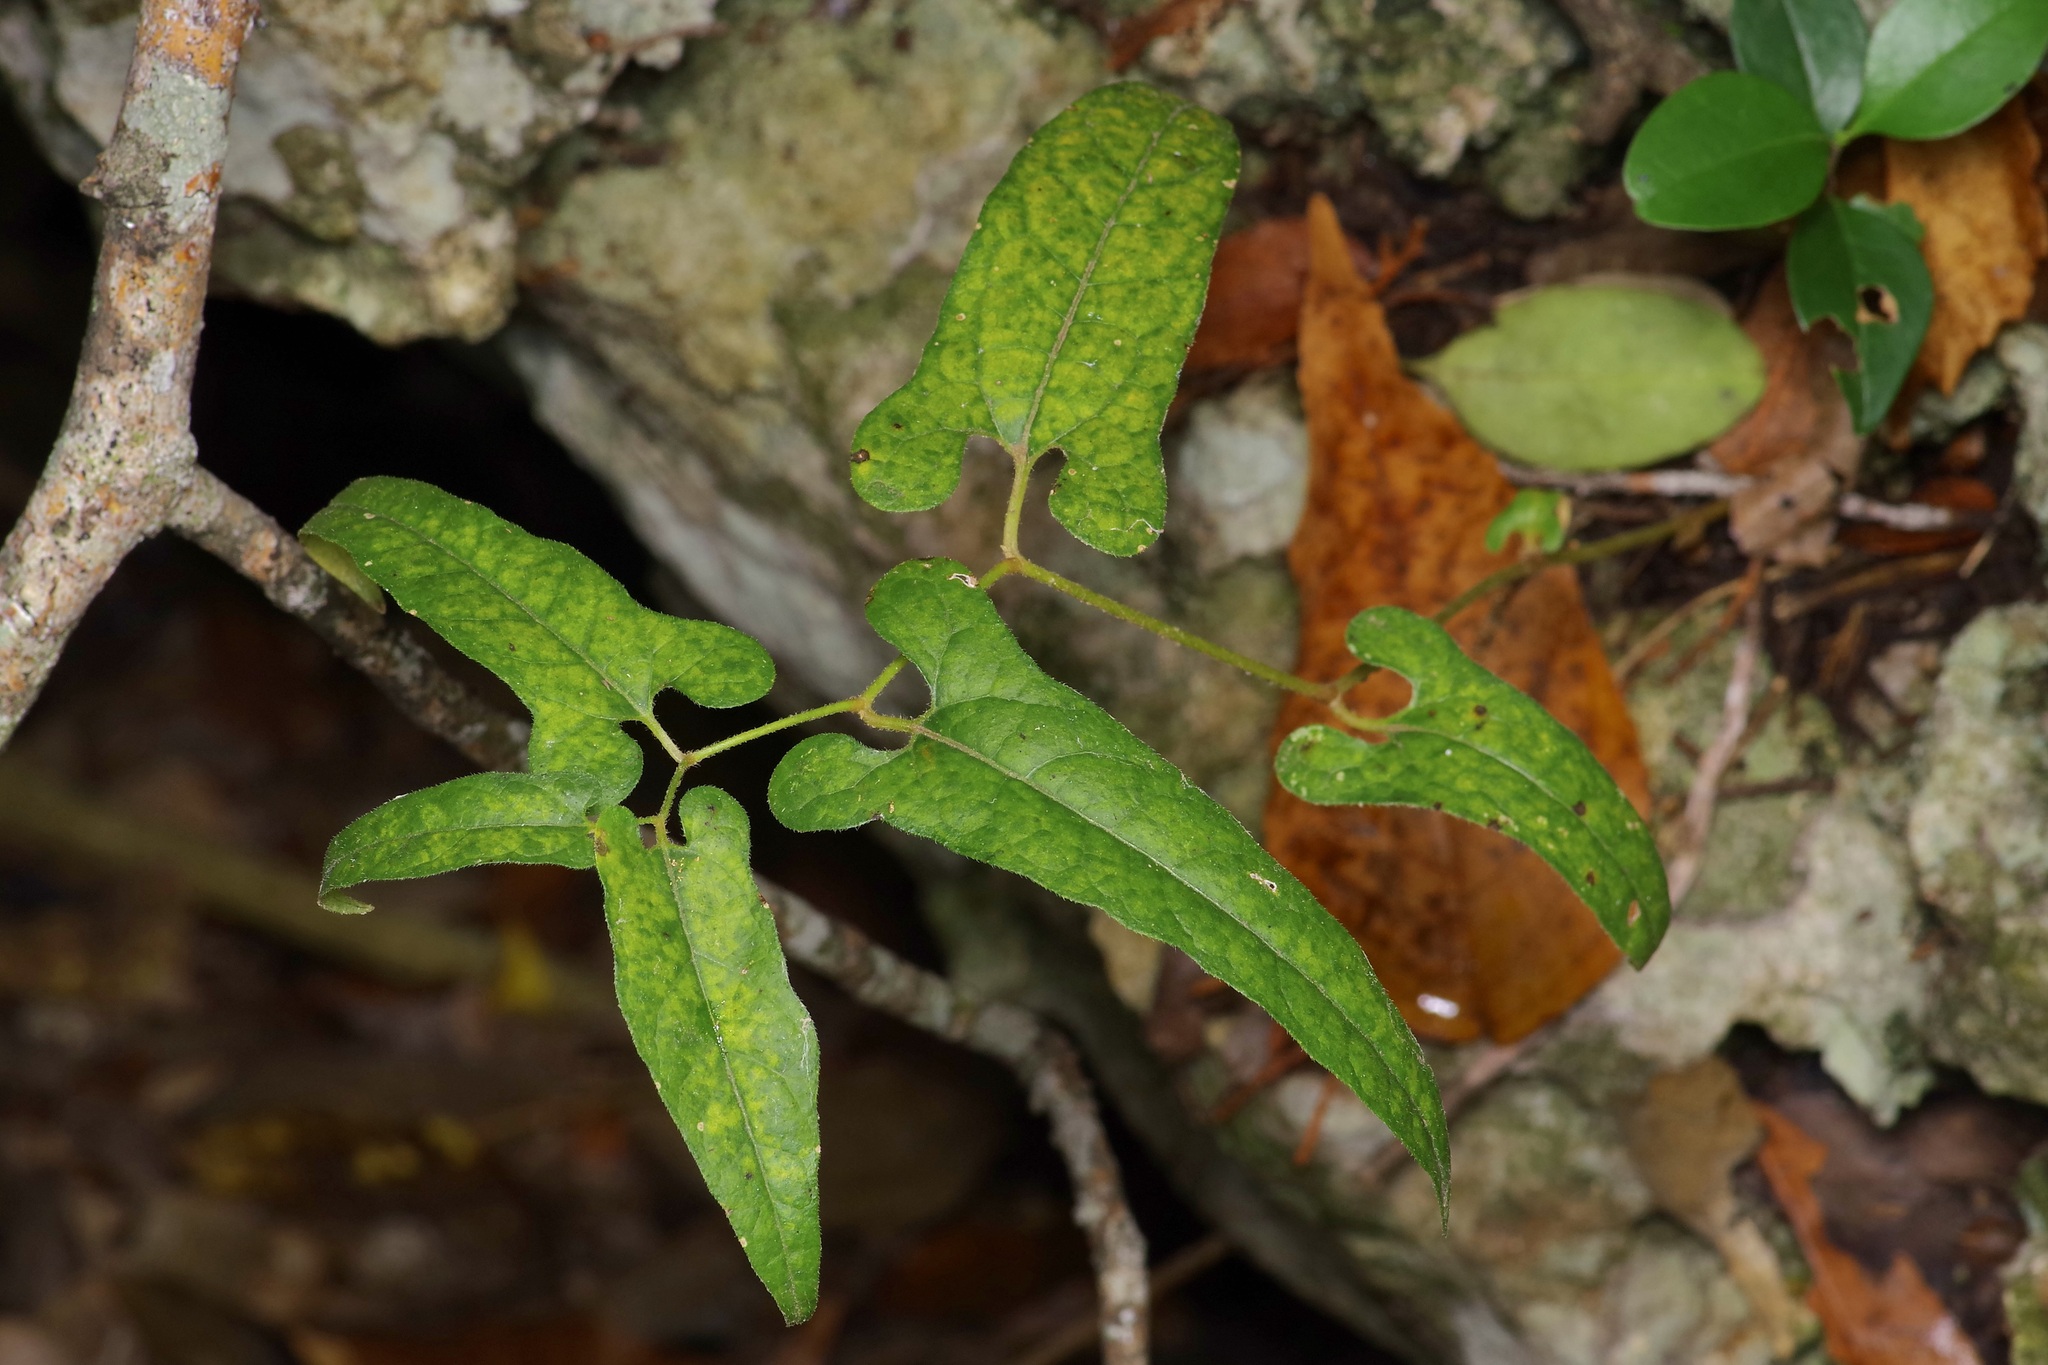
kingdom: Plantae
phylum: Tracheophyta
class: Magnoliopsida
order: Piperales
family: Aristolochiaceae
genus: Endodeca
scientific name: Endodeca serpentaria
